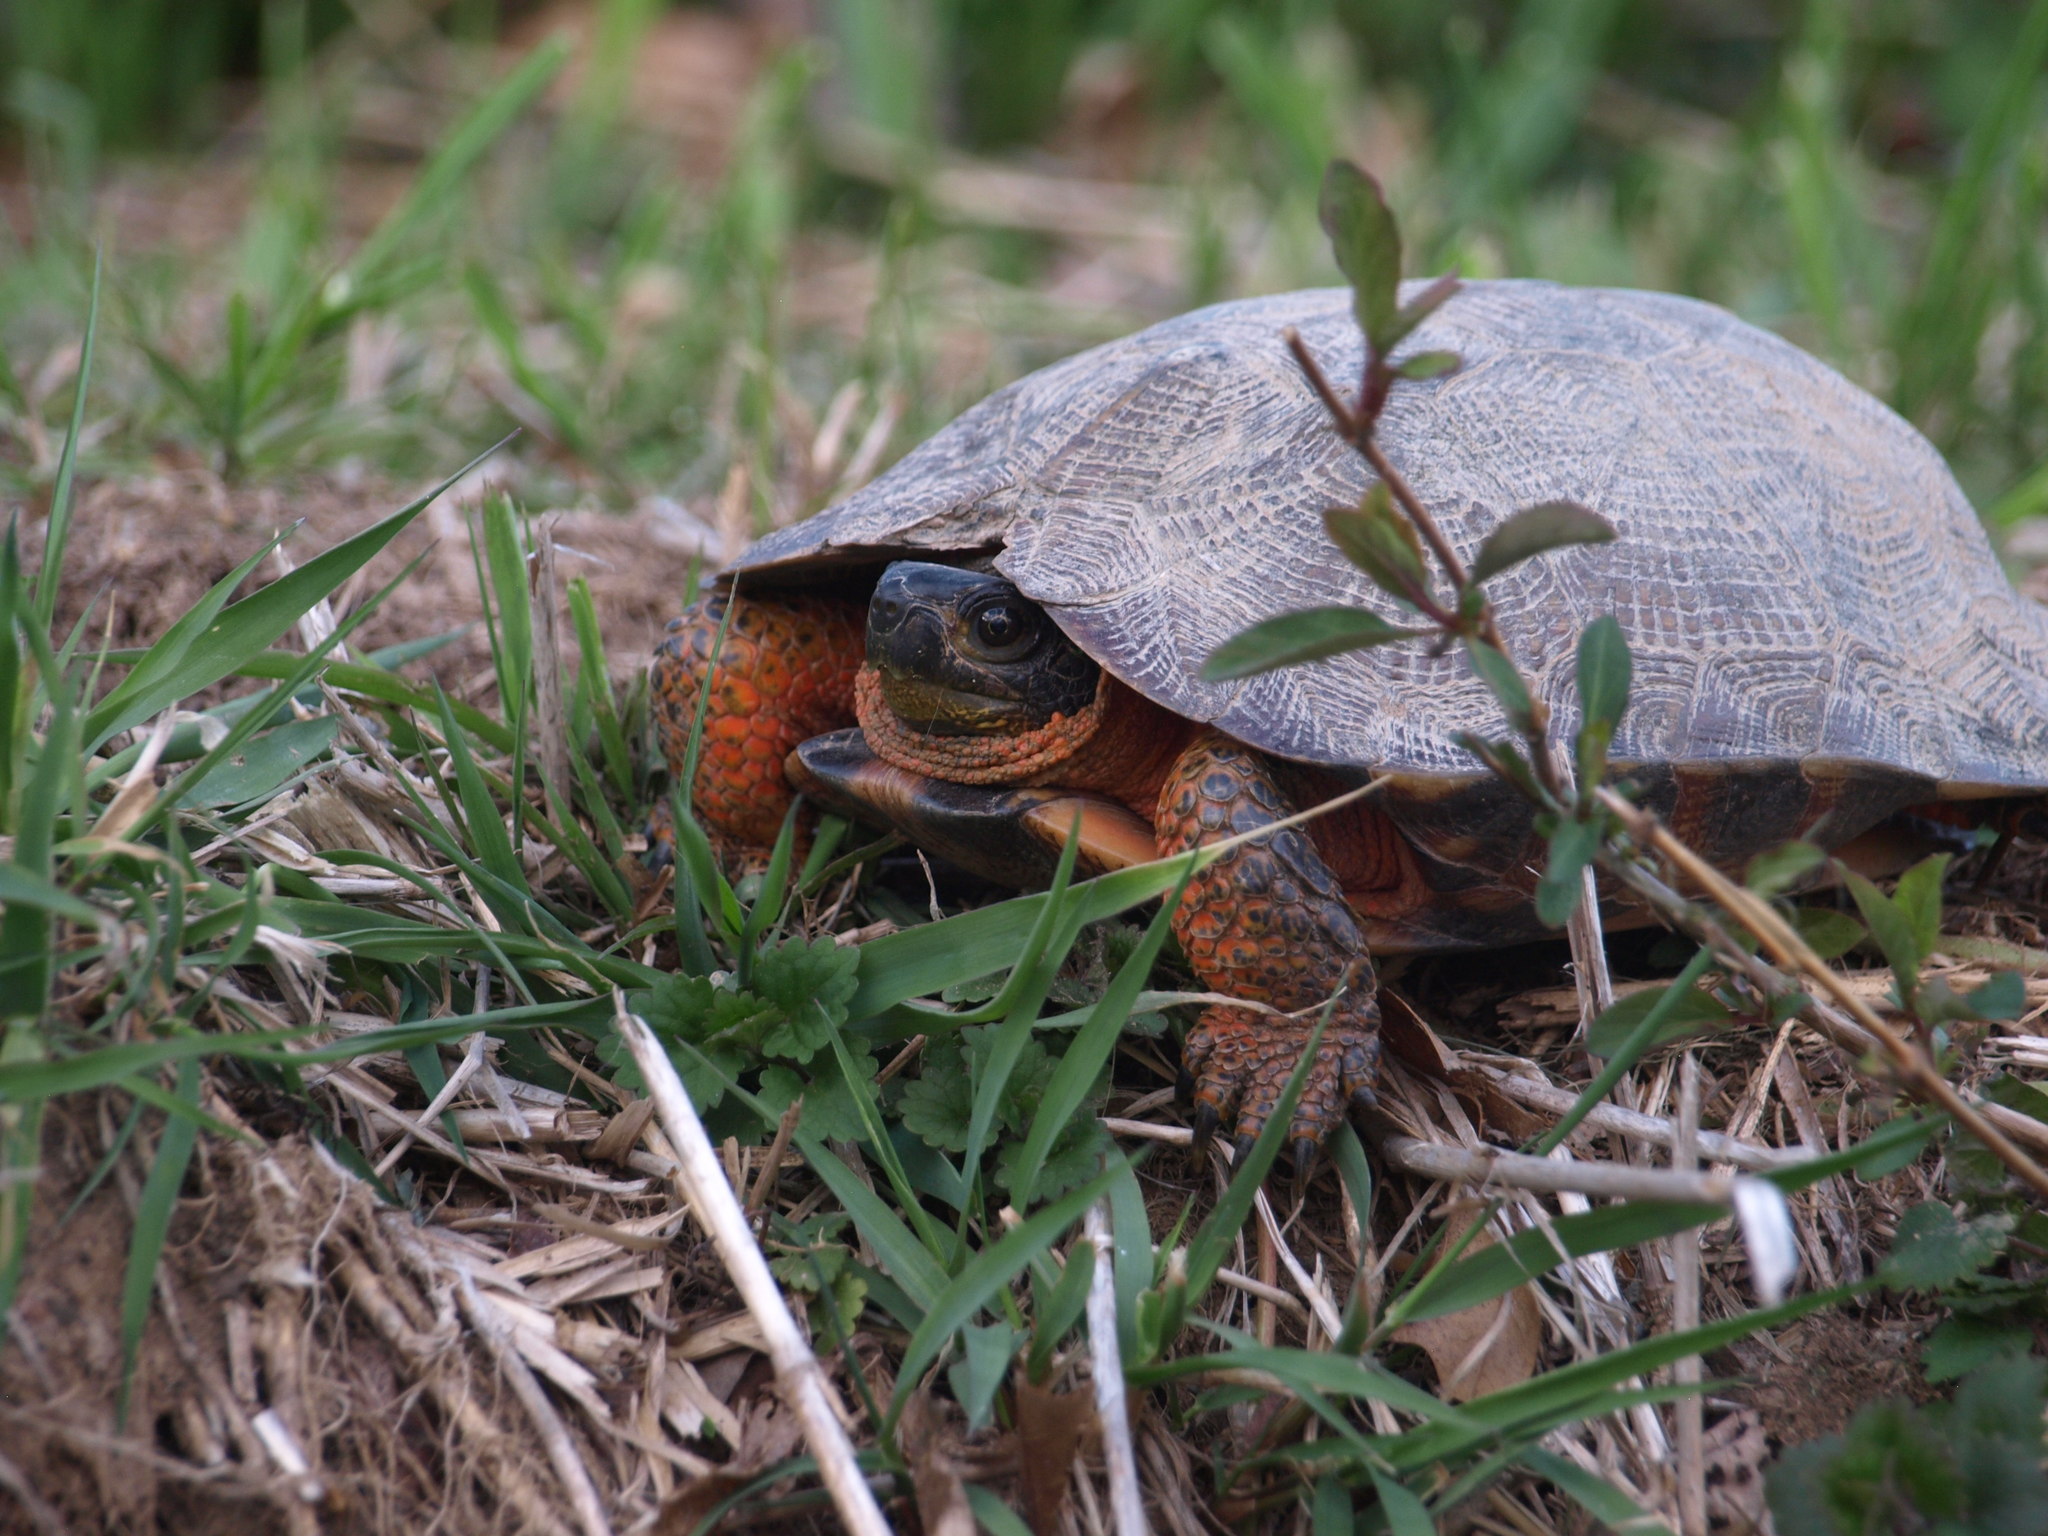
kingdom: Animalia
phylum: Chordata
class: Testudines
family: Emydidae
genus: Glyptemys
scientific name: Glyptemys insculpta
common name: Wood turtle
